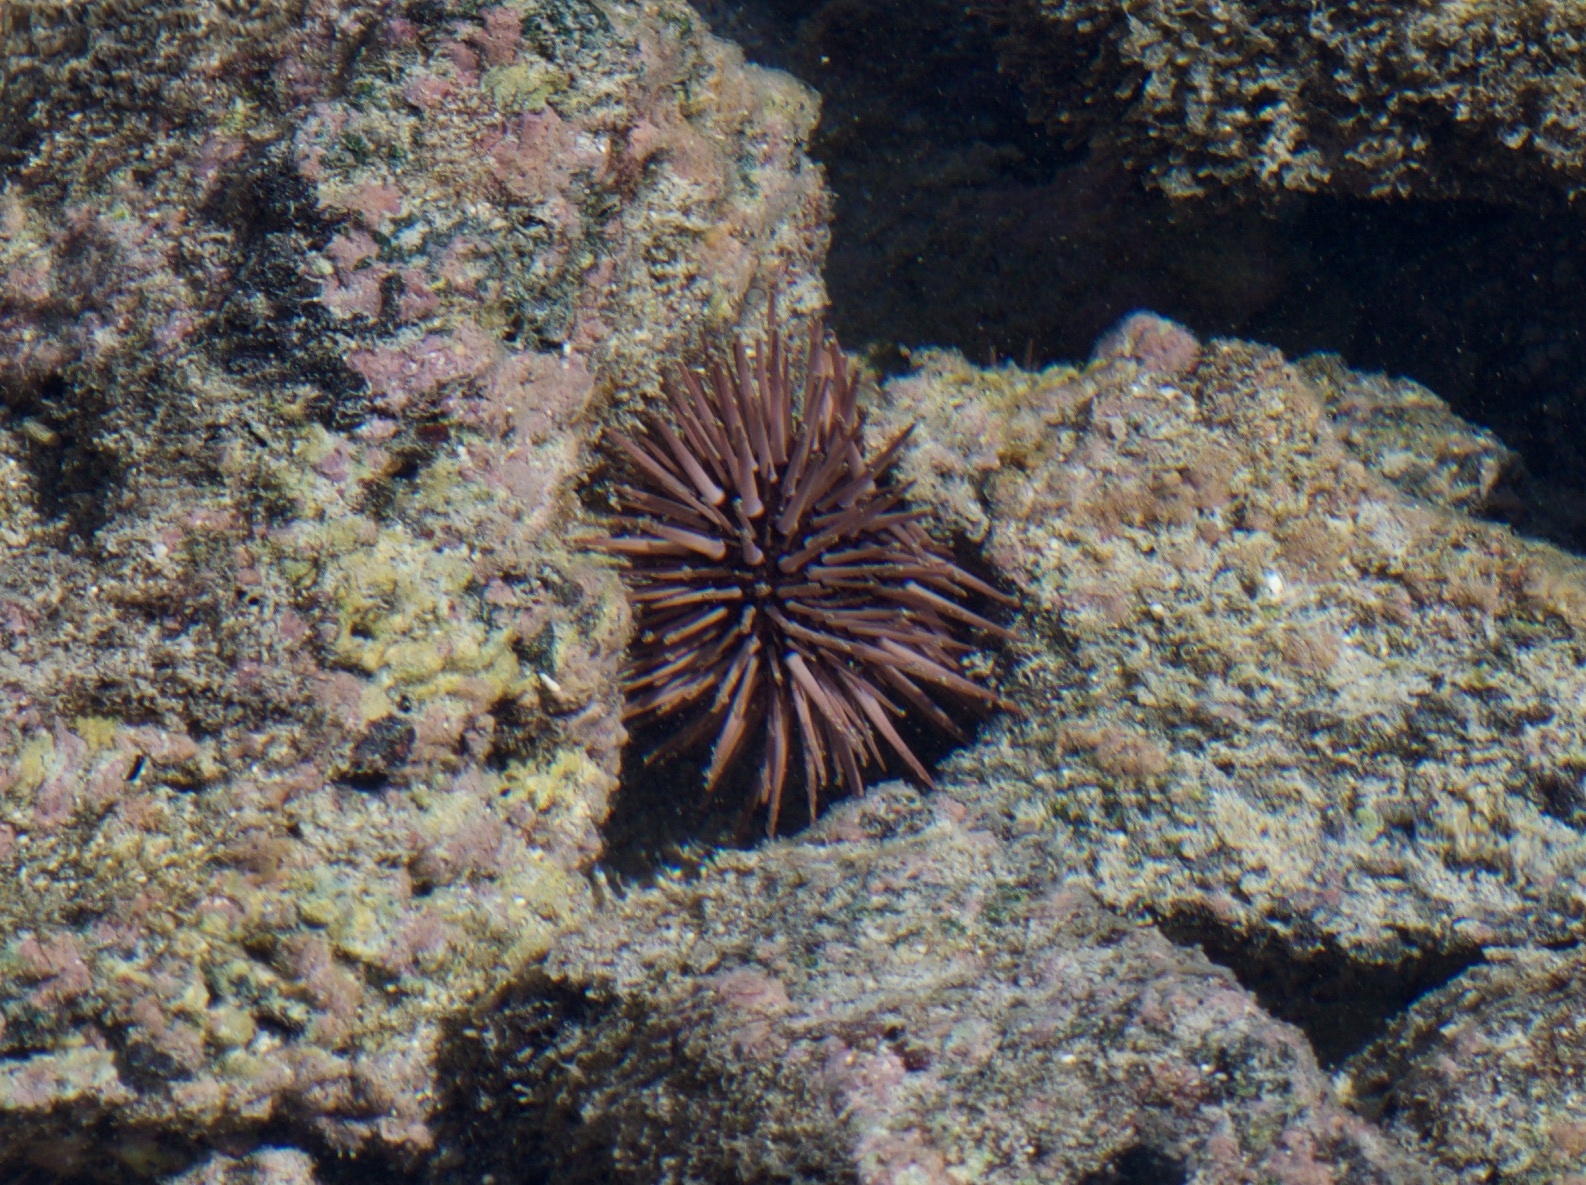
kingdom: Animalia
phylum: Echinodermata
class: Echinoidea
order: Camarodonta
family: Echinometridae
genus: Echinometra
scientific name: Echinometra mathaei
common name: Rock-boring urchin
